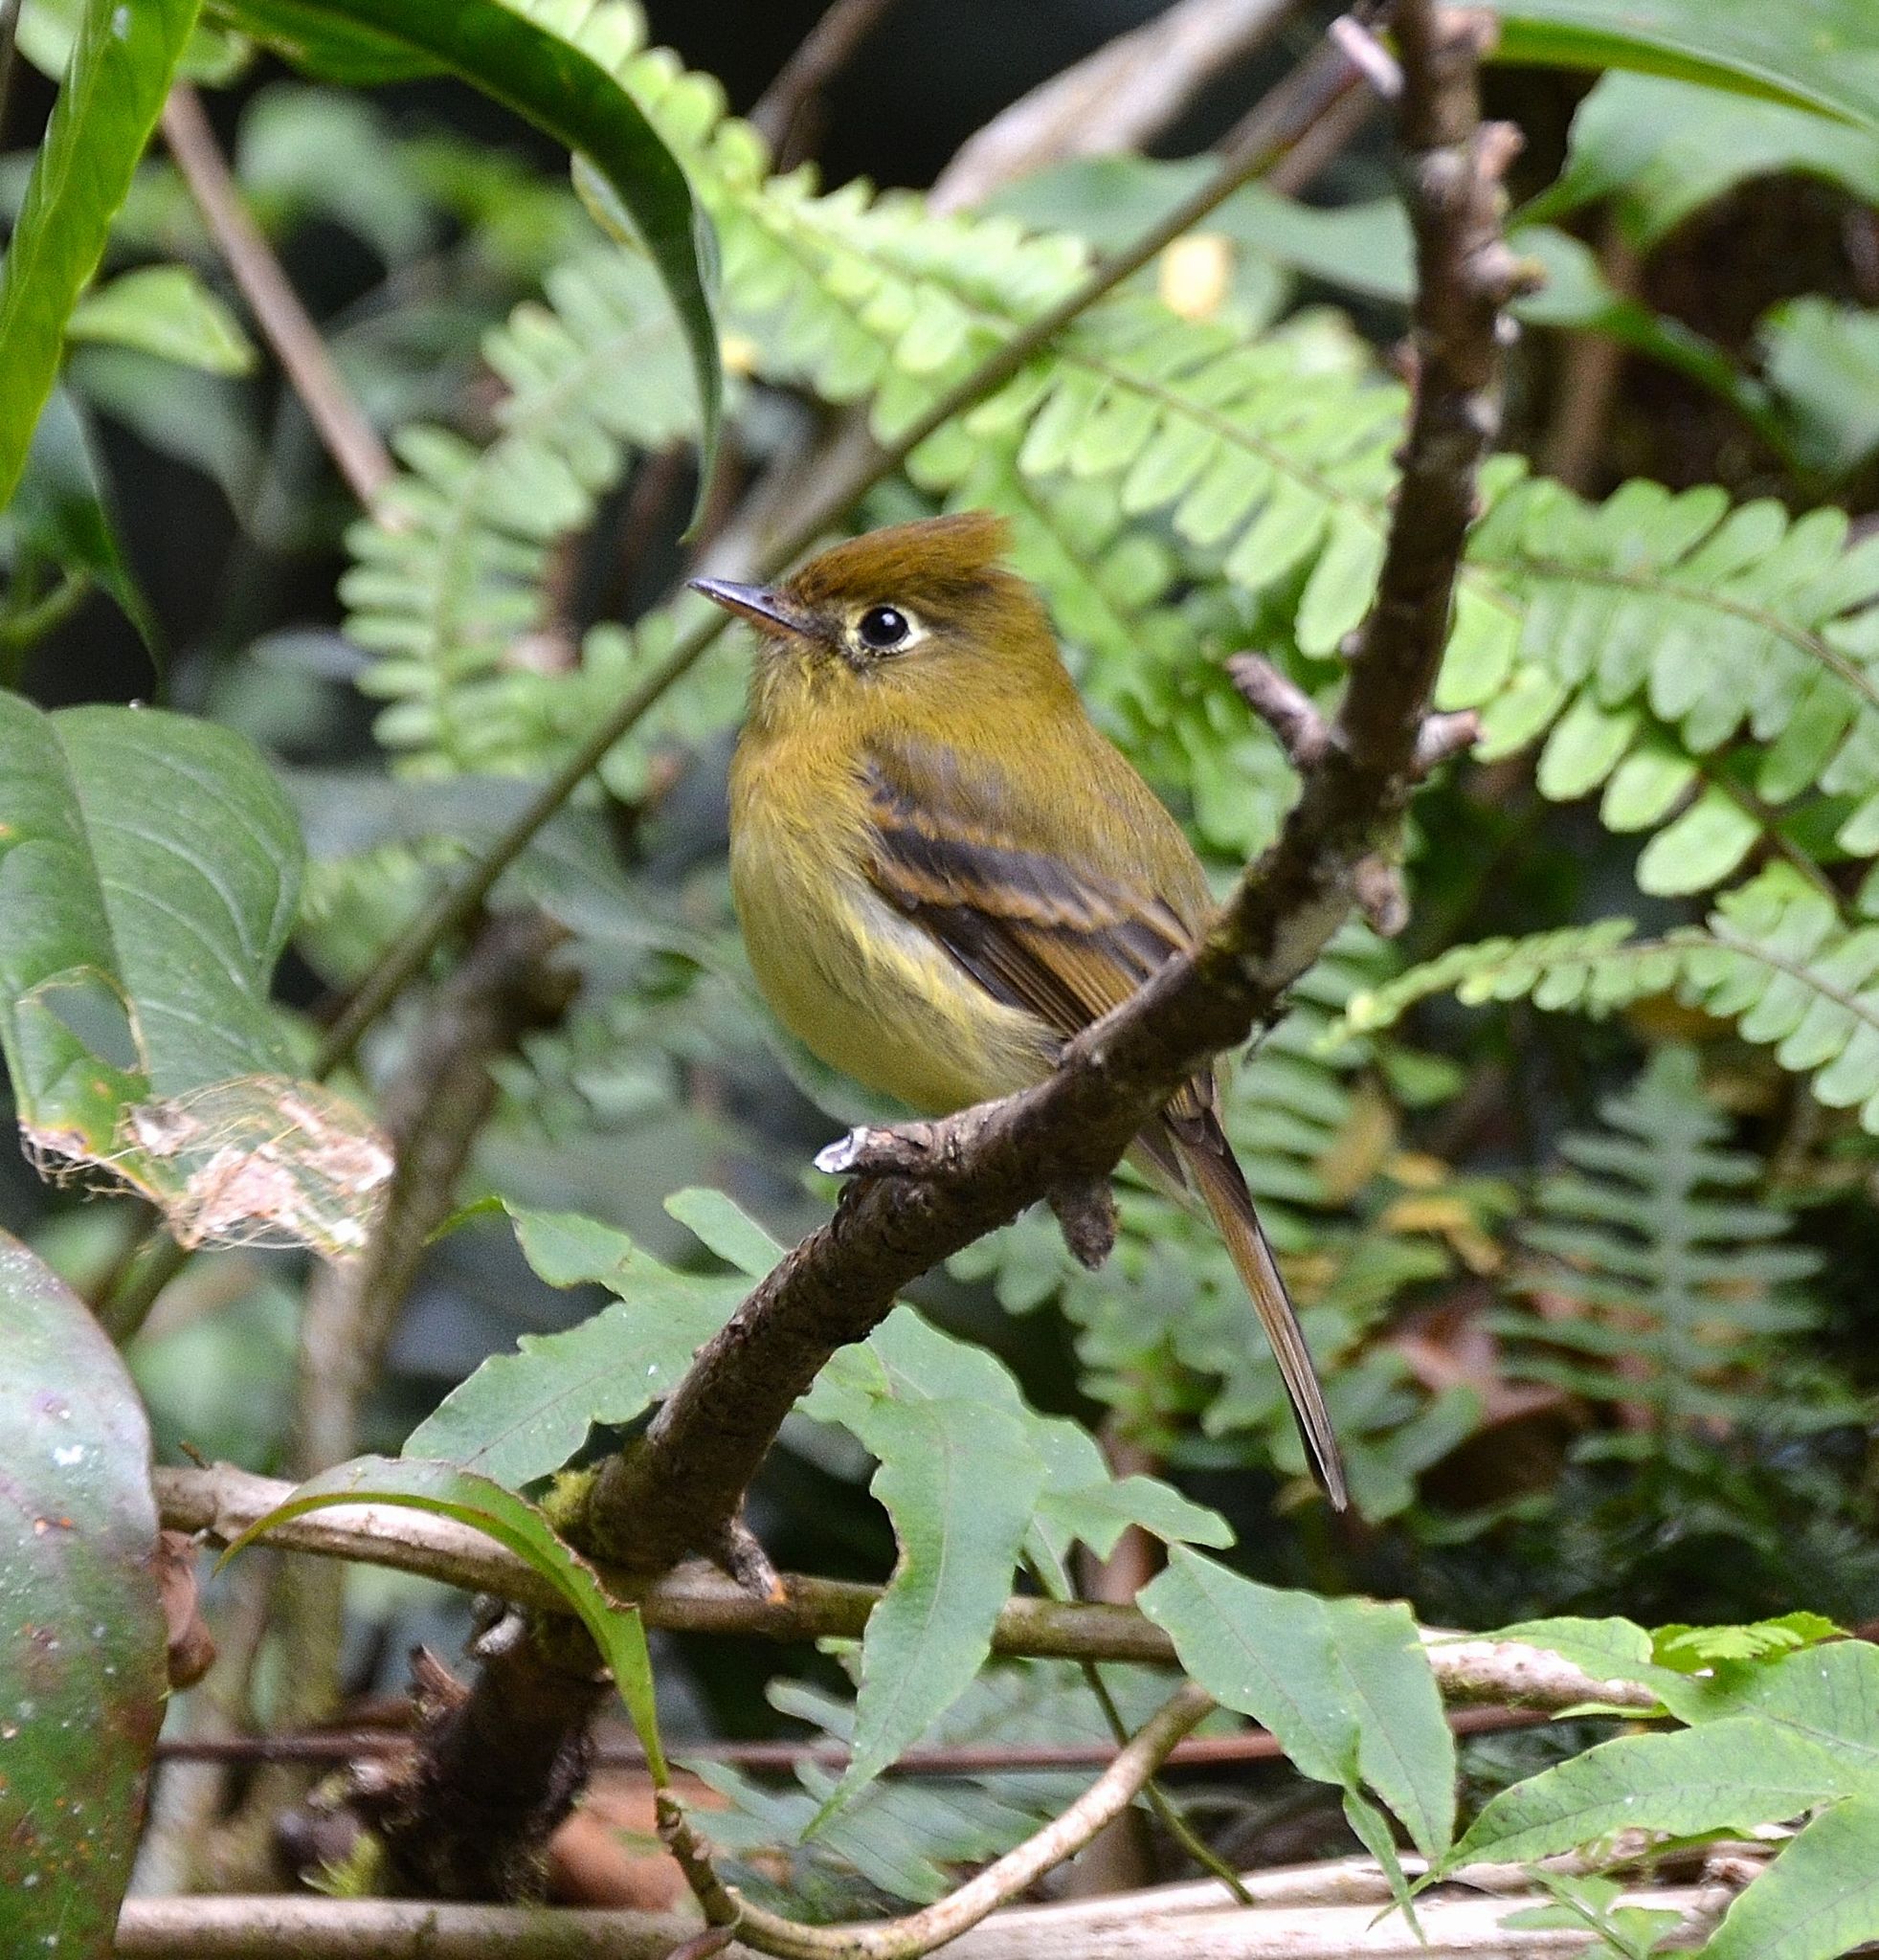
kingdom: Animalia
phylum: Chordata
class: Aves
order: Passeriformes
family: Tyrannidae
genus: Empidonax
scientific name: Empidonax flavescens
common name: Yellowish flycatcher
